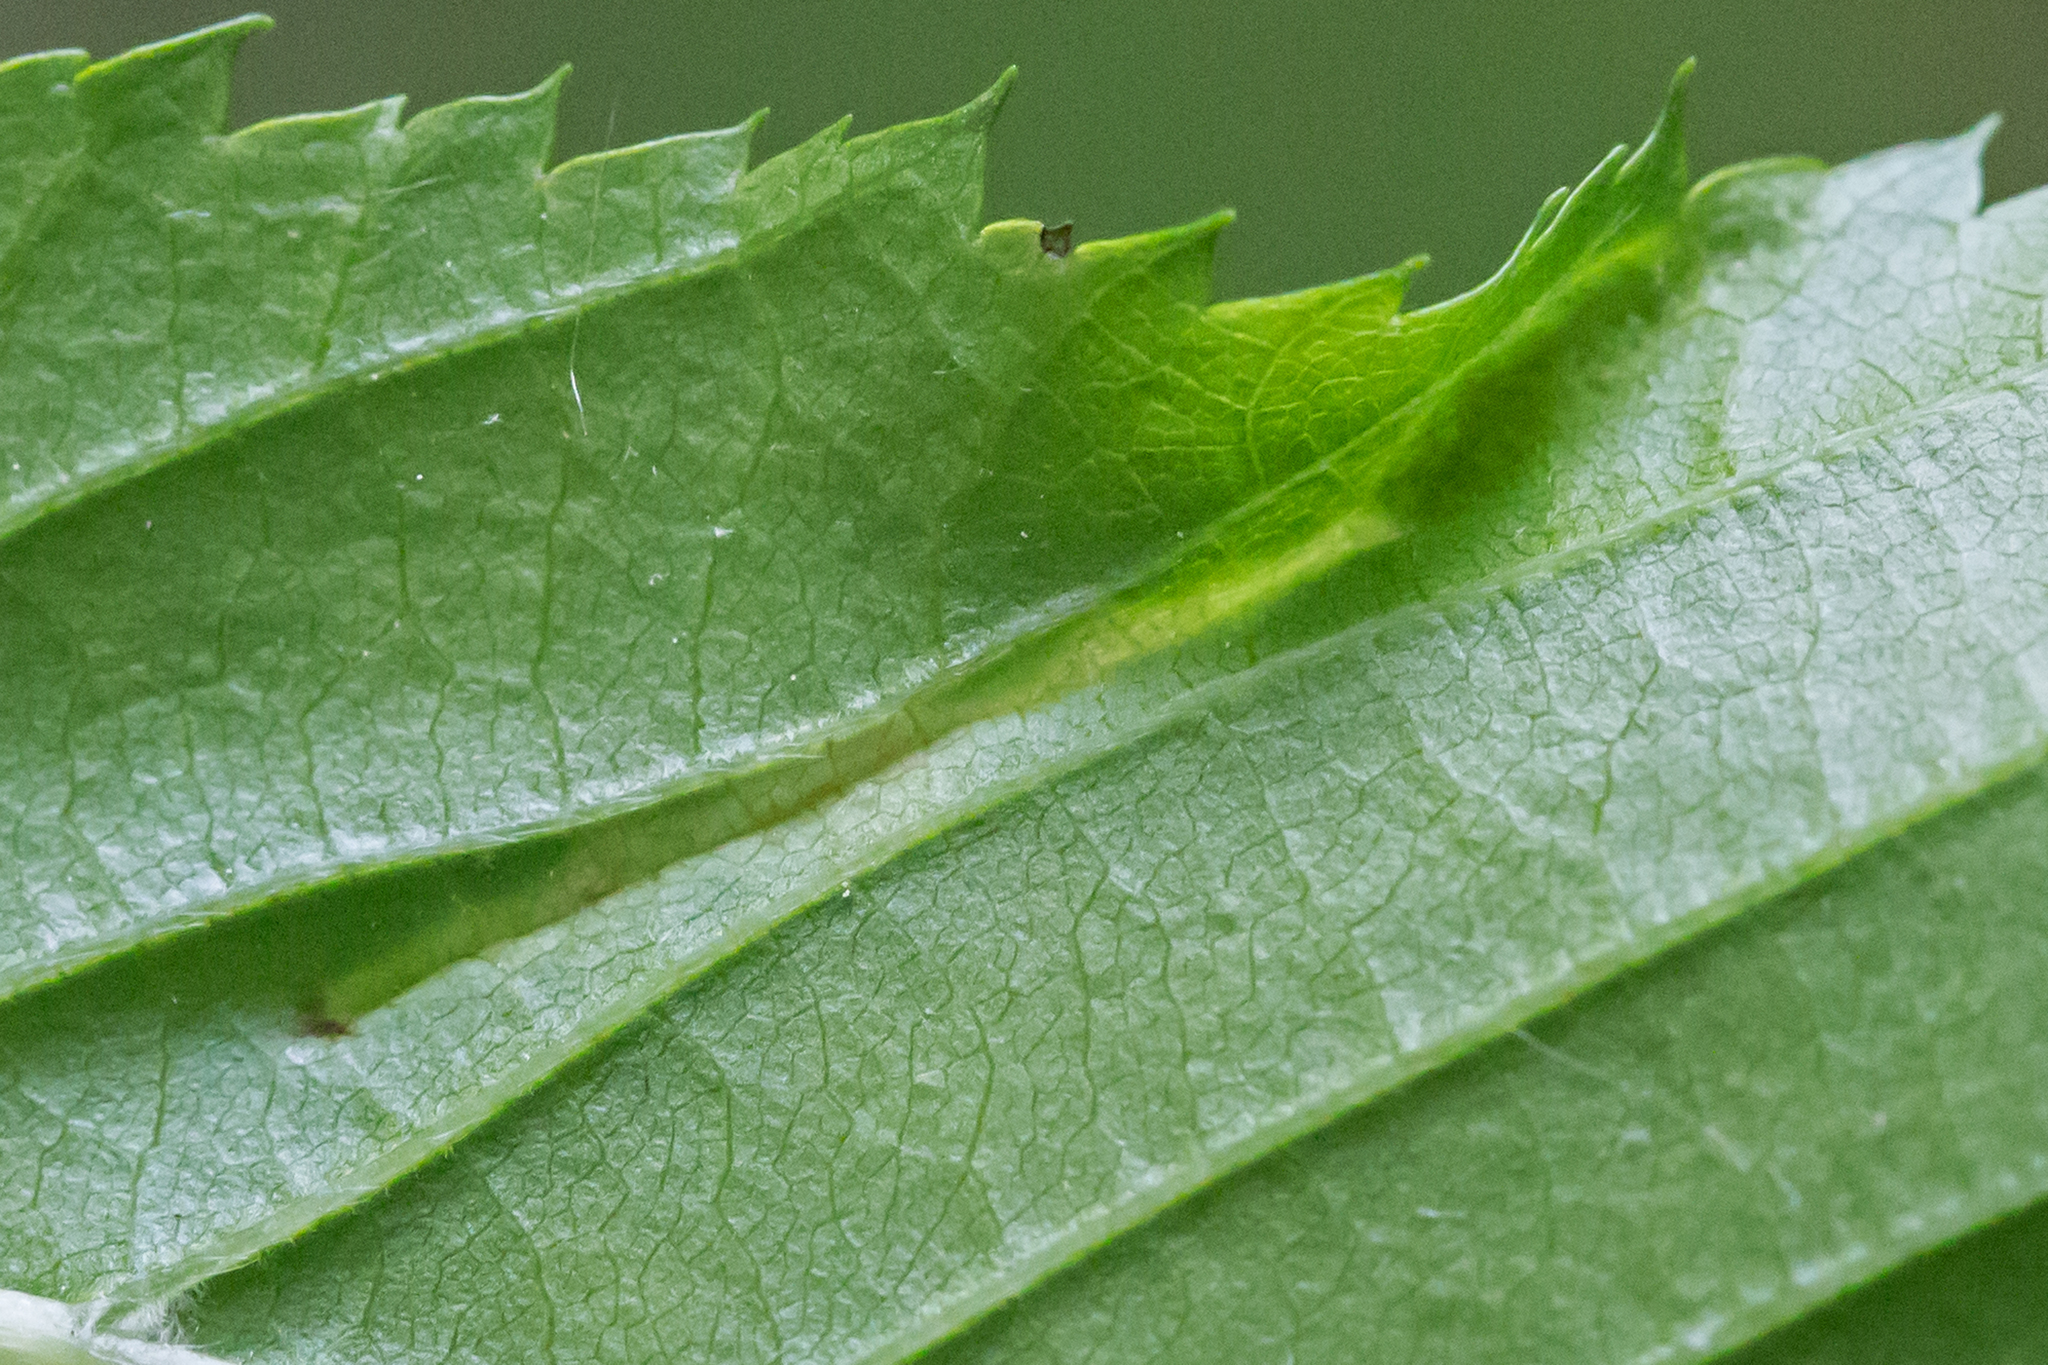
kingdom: Animalia
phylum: Arthropoda
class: Insecta
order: Diptera
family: Cecidomyiidae
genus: Dasineura
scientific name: Dasineura pudibunda
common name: Hornbeam leaf gall midge
